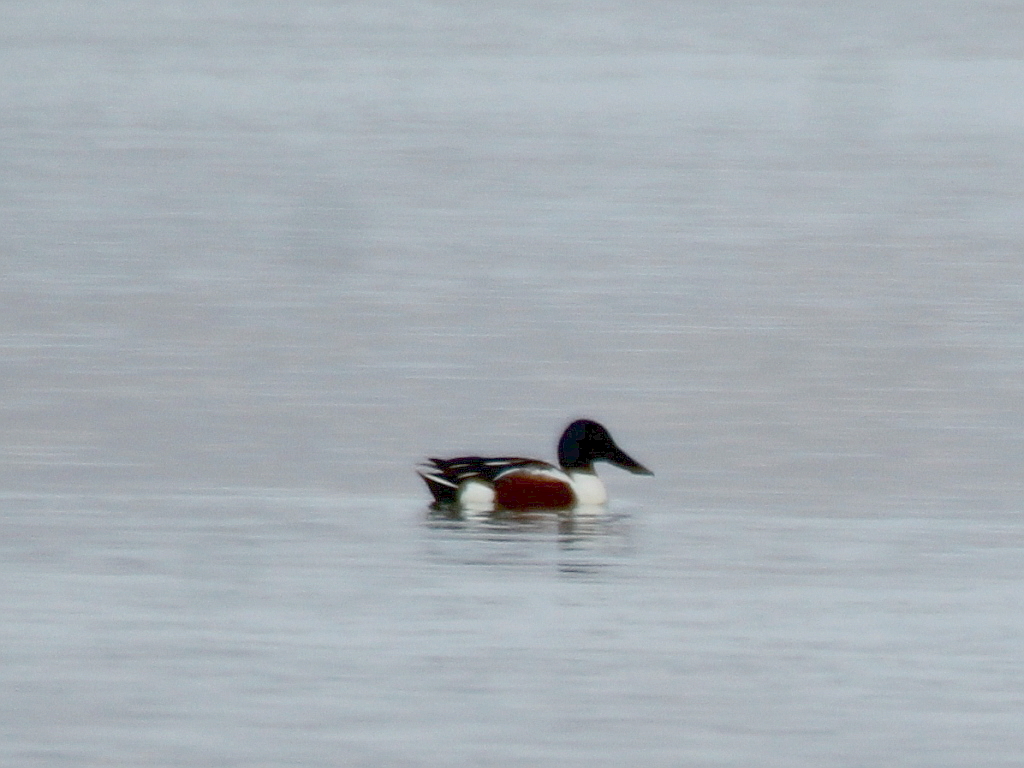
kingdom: Animalia
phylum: Chordata
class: Aves
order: Anseriformes
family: Anatidae
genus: Spatula
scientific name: Spatula clypeata
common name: Northern shoveler
